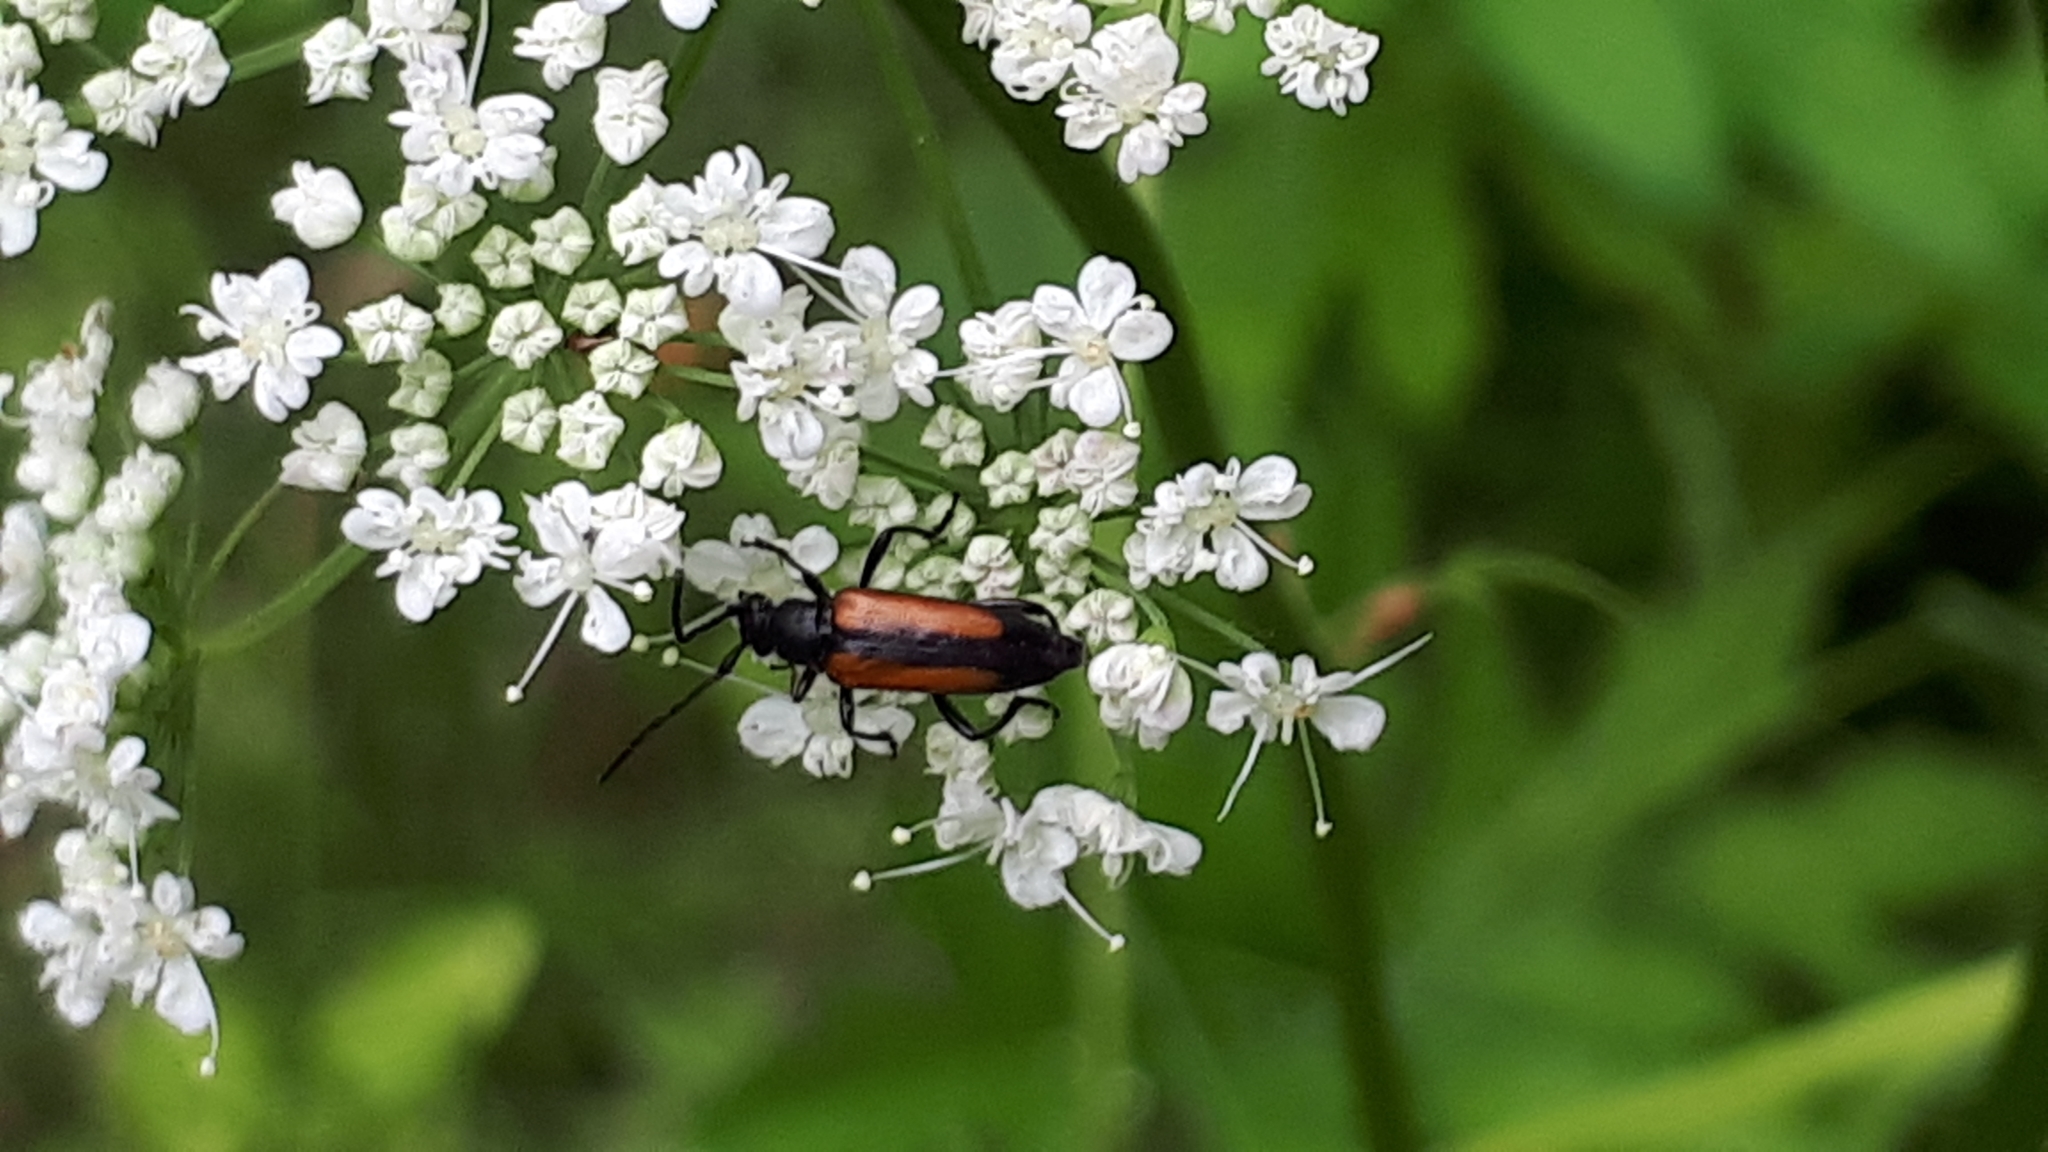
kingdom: Animalia
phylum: Arthropoda
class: Insecta
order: Coleoptera
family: Cerambycidae
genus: Stenurella
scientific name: Stenurella melanura
